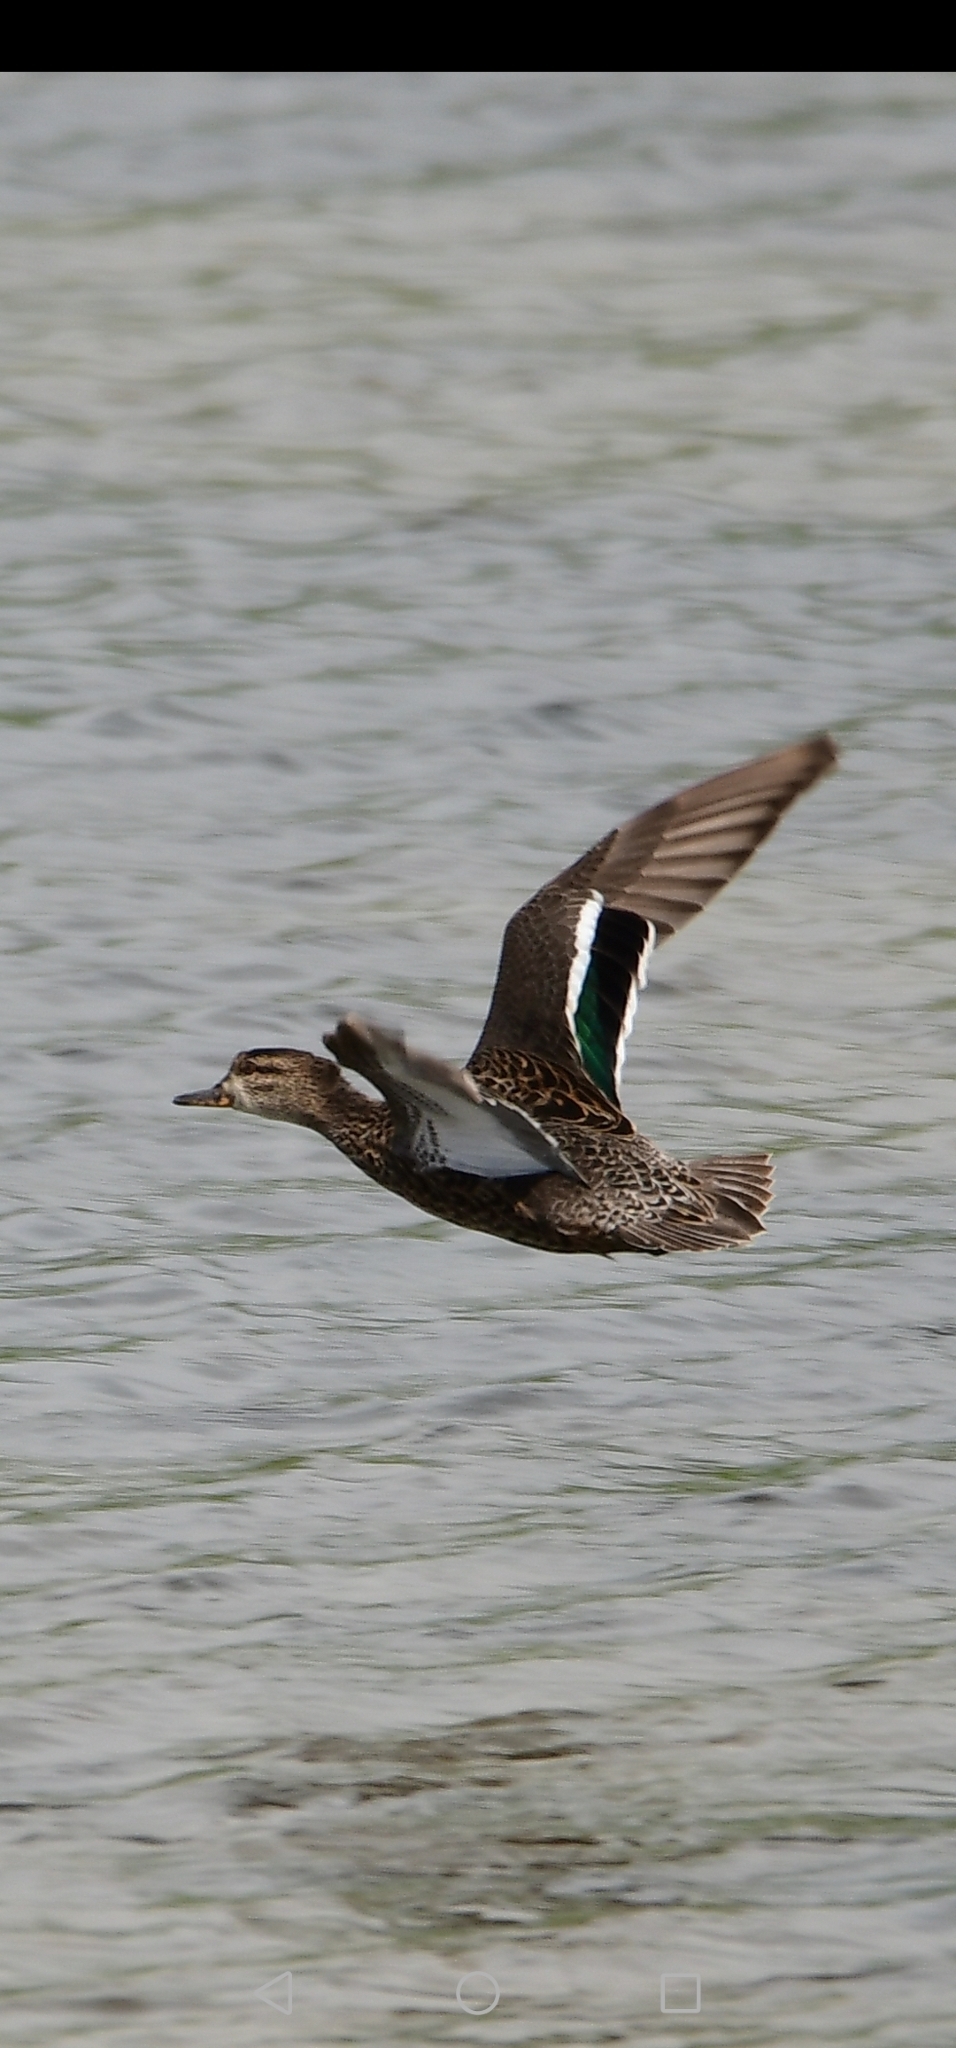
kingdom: Animalia
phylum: Chordata
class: Aves
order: Anseriformes
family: Anatidae
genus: Anas
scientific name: Anas crecca
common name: Eurasian teal
